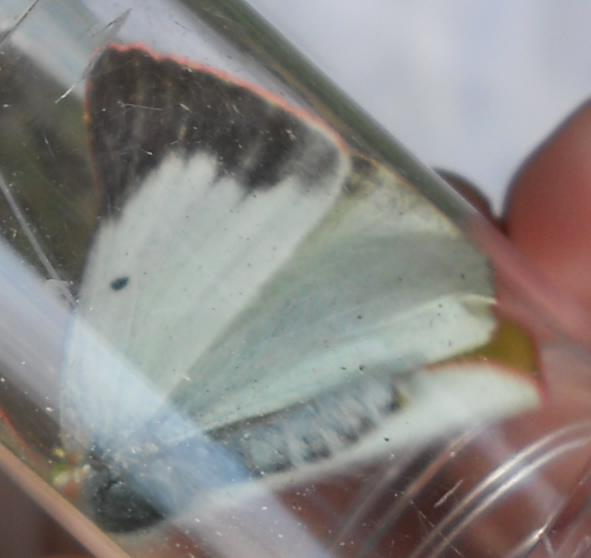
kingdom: Animalia
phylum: Arthropoda
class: Insecta
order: Lepidoptera
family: Pieridae
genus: Colias
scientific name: Colias palaeno
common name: Moorland clouded yellow
